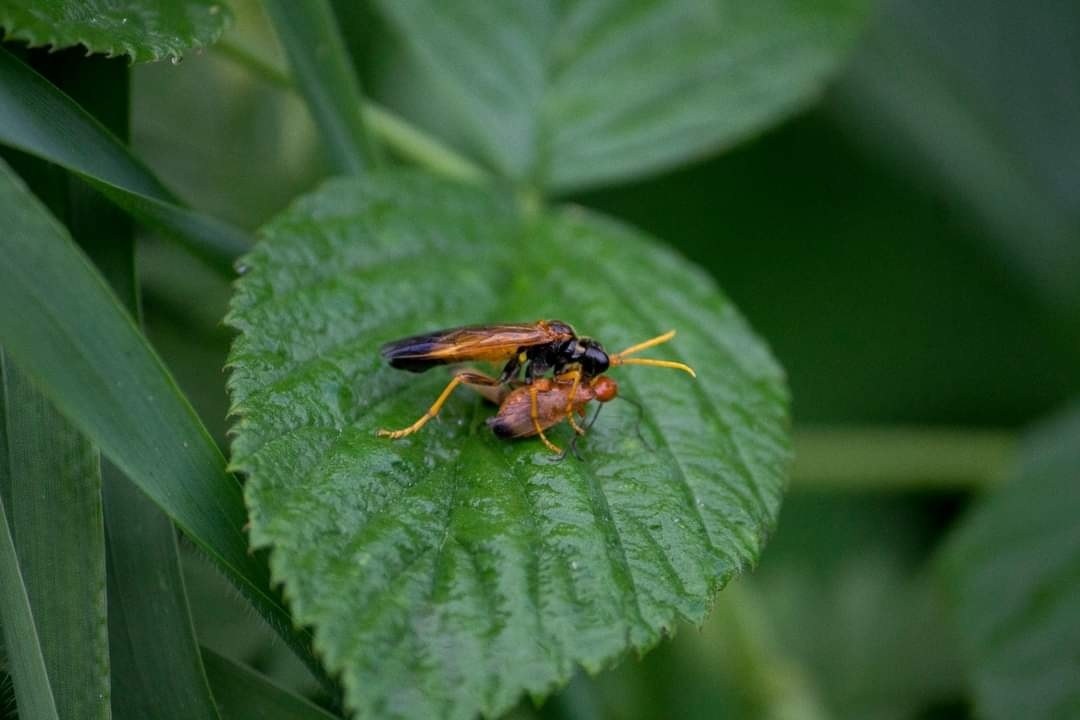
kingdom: Animalia
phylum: Arthropoda
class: Insecta
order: Hymenoptera
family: Tenthredinidae
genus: Tenthredo
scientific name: Tenthredo campestris
